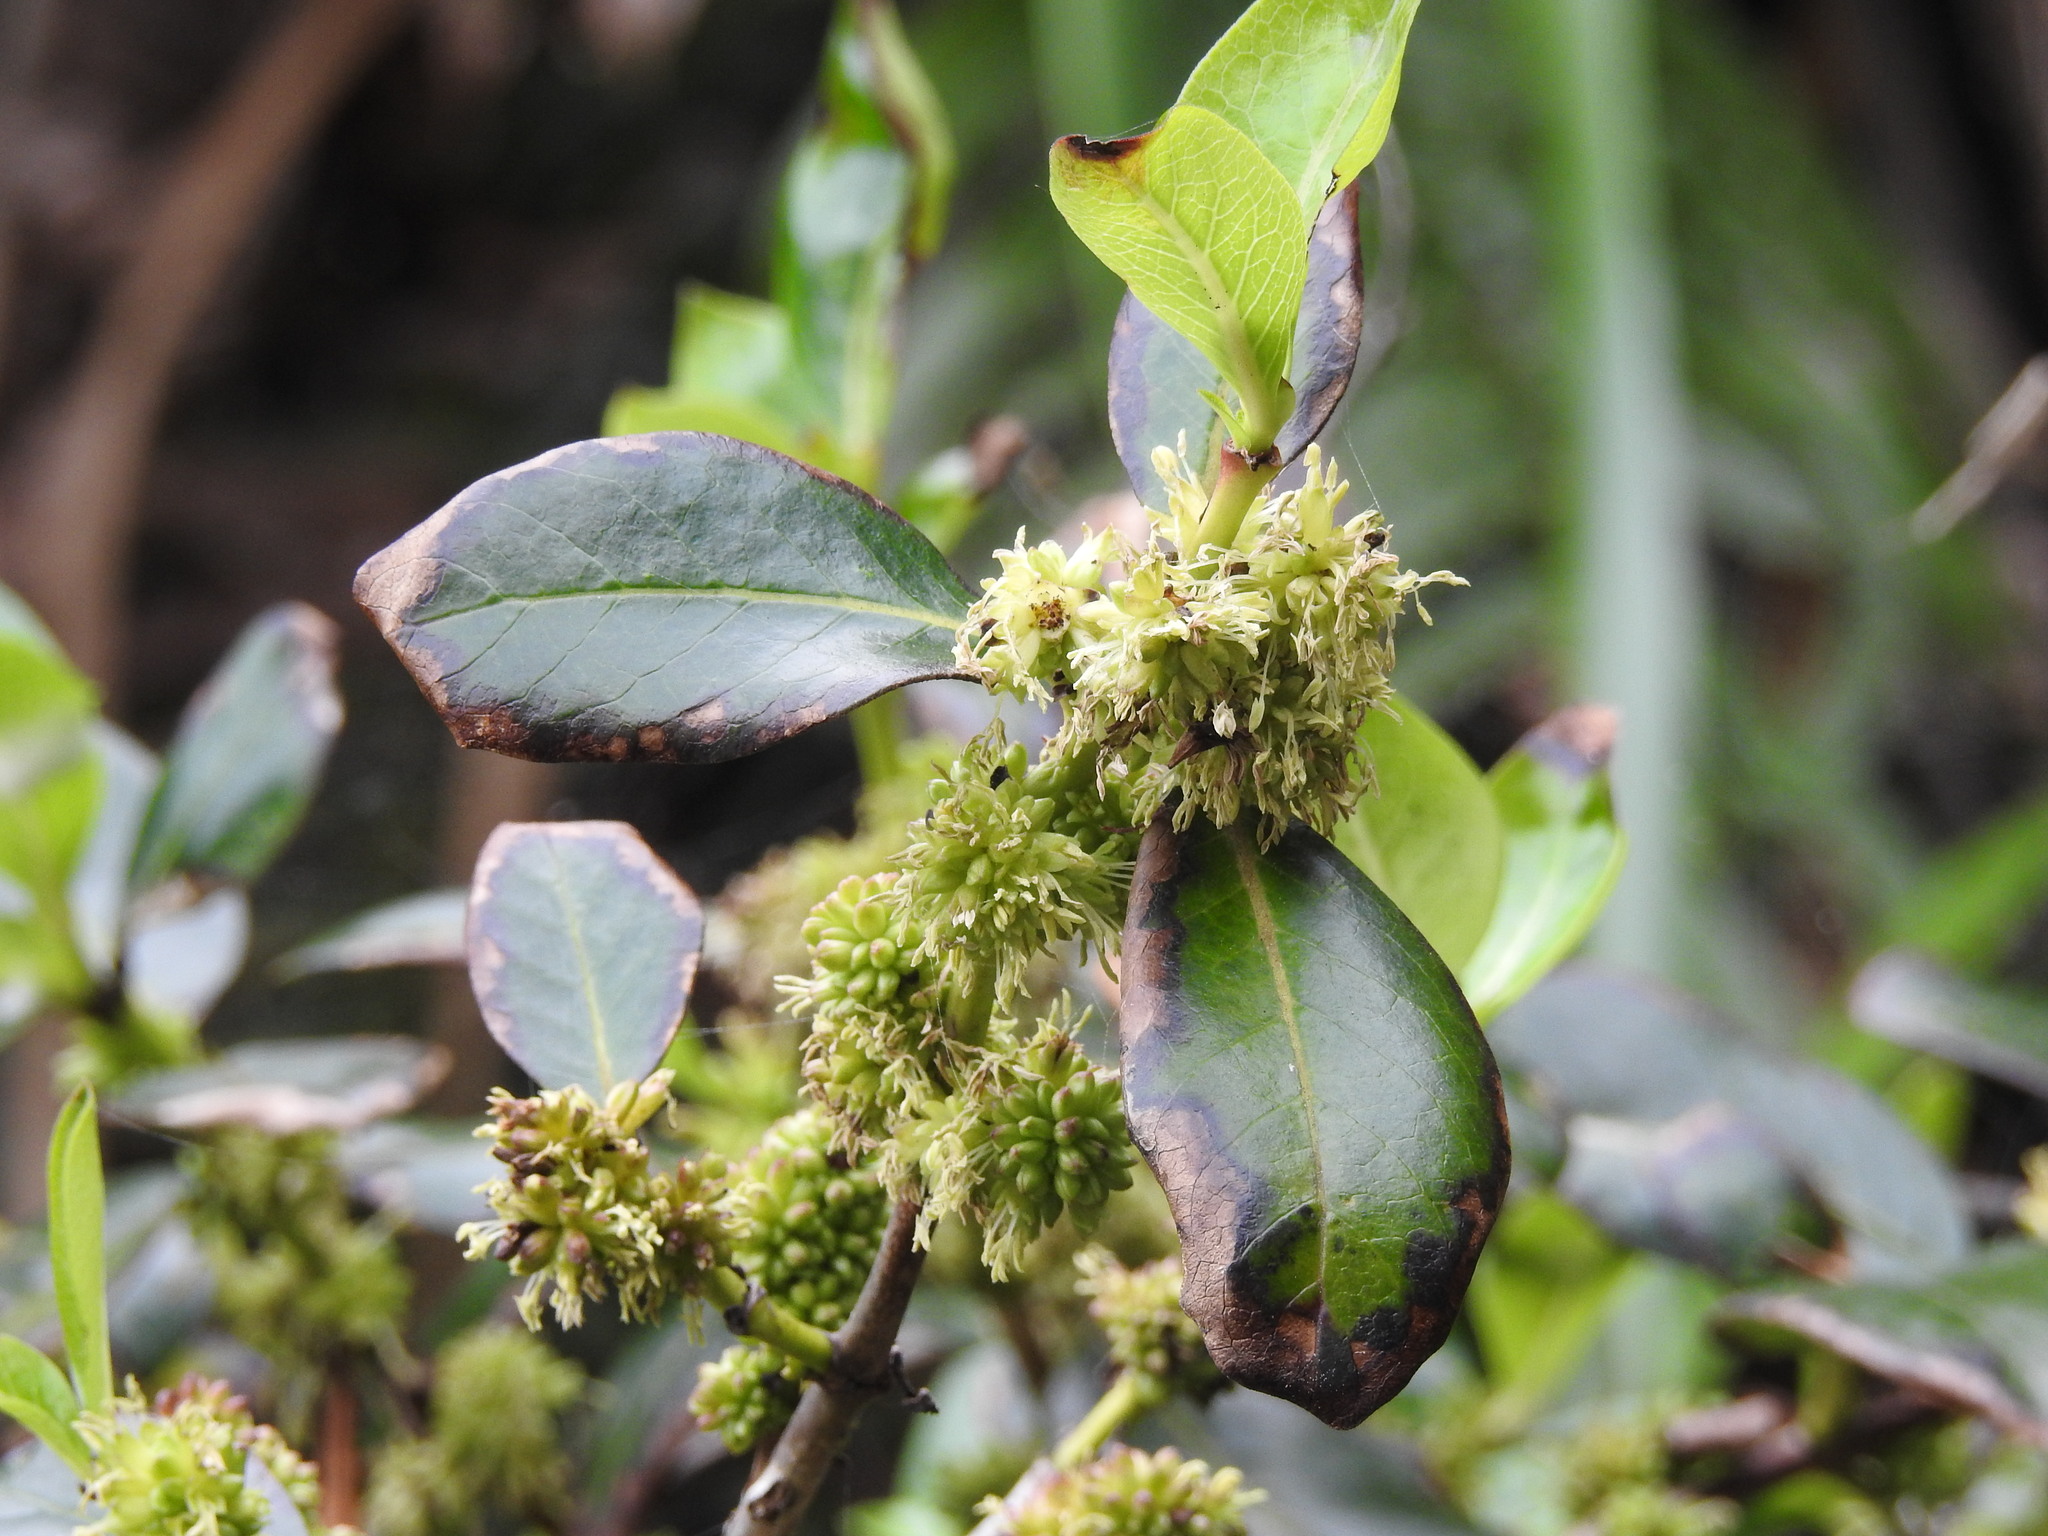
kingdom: Plantae
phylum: Tracheophyta
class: Magnoliopsida
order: Gentianales
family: Rubiaceae
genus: Coprosma
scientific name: Coprosma robusta
